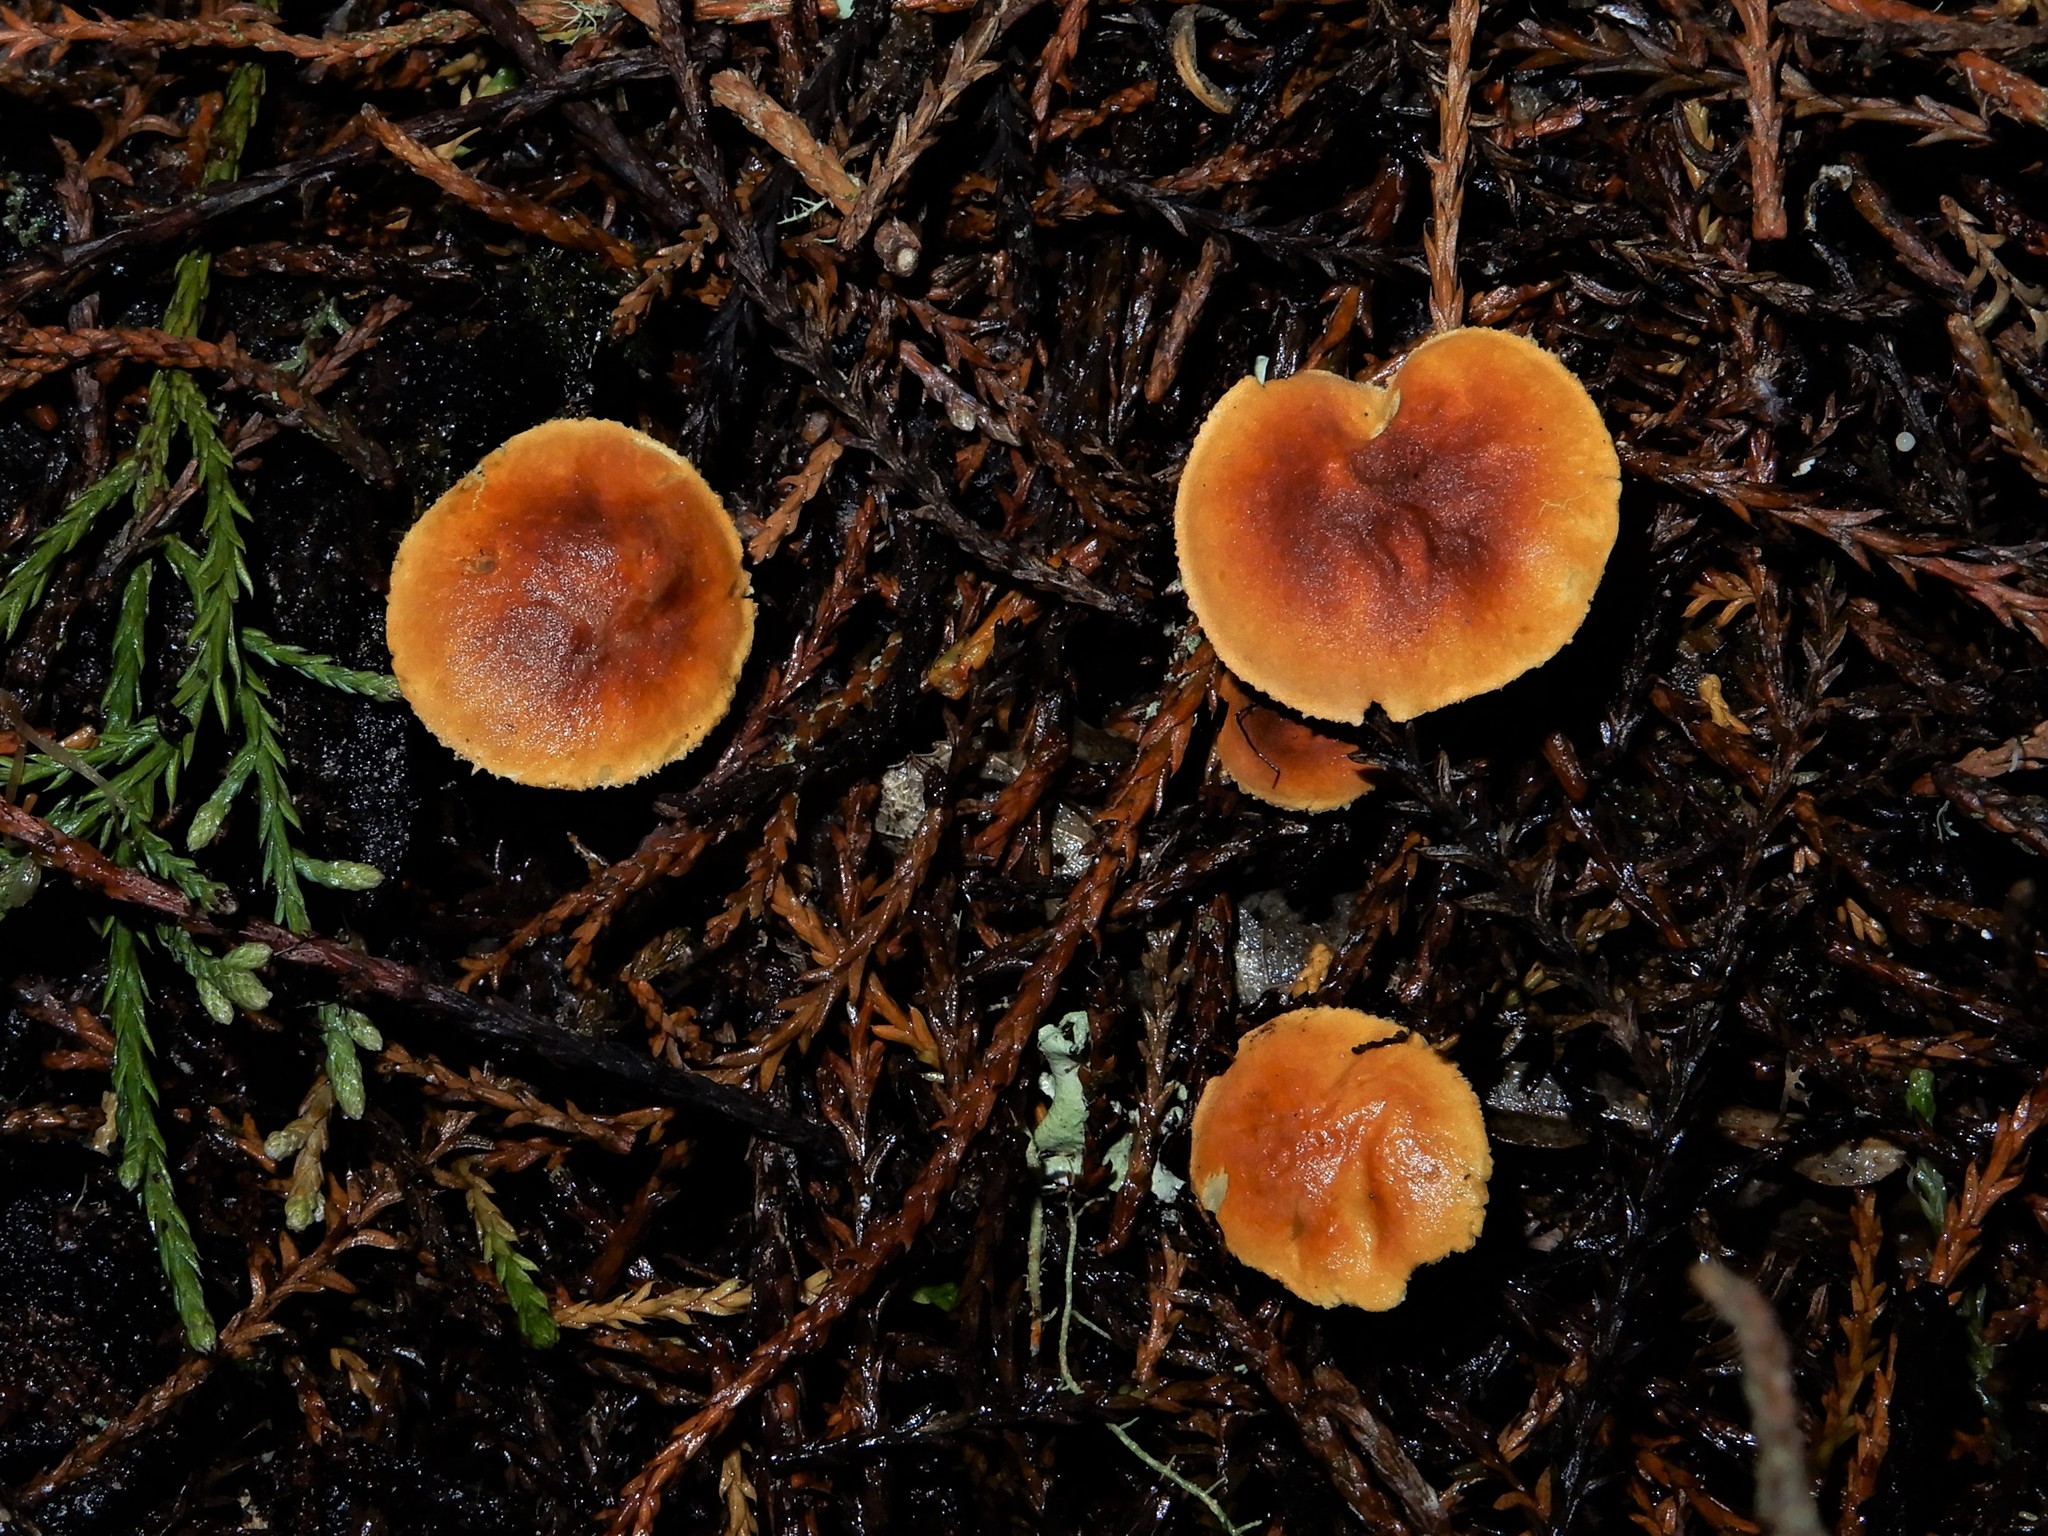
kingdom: Fungi
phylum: Basidiomycota
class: Agaricomycetes
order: Agaricales
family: Tricholomataceae
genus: Cystoderma
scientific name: Cystoderma clastotrichum
